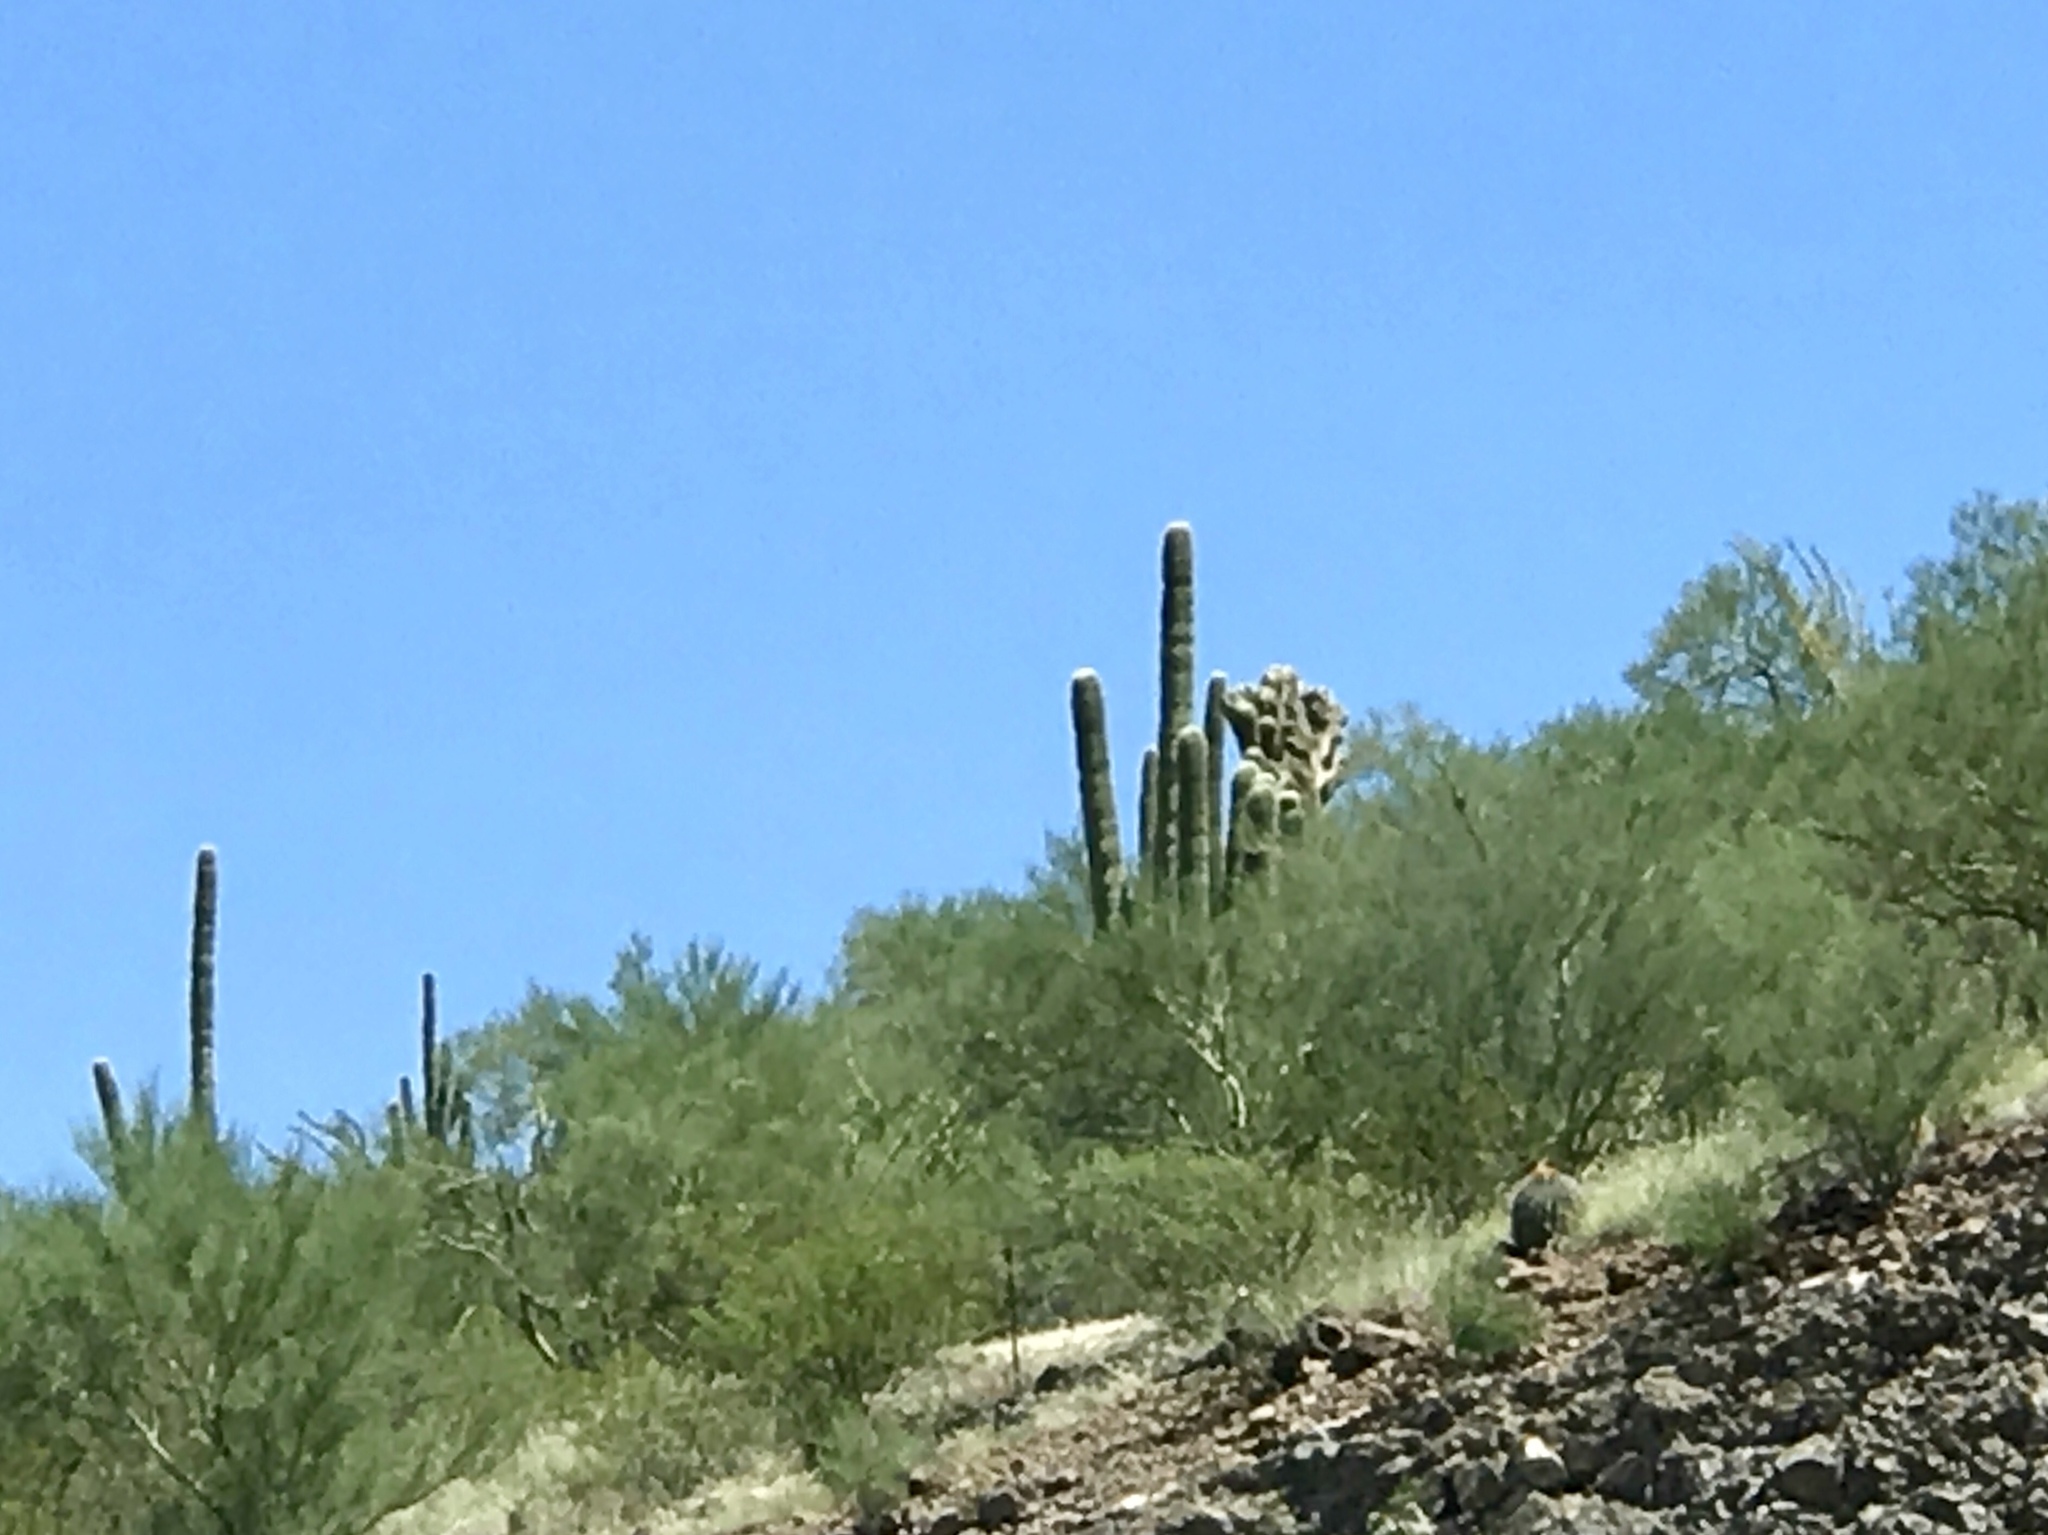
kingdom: Plantae
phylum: Tracheophyta
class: Magnoliopsida
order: Caryophyllales
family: Cactaceae
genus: Carnegiea
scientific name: Carnegiea gigantea
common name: Saguaro
